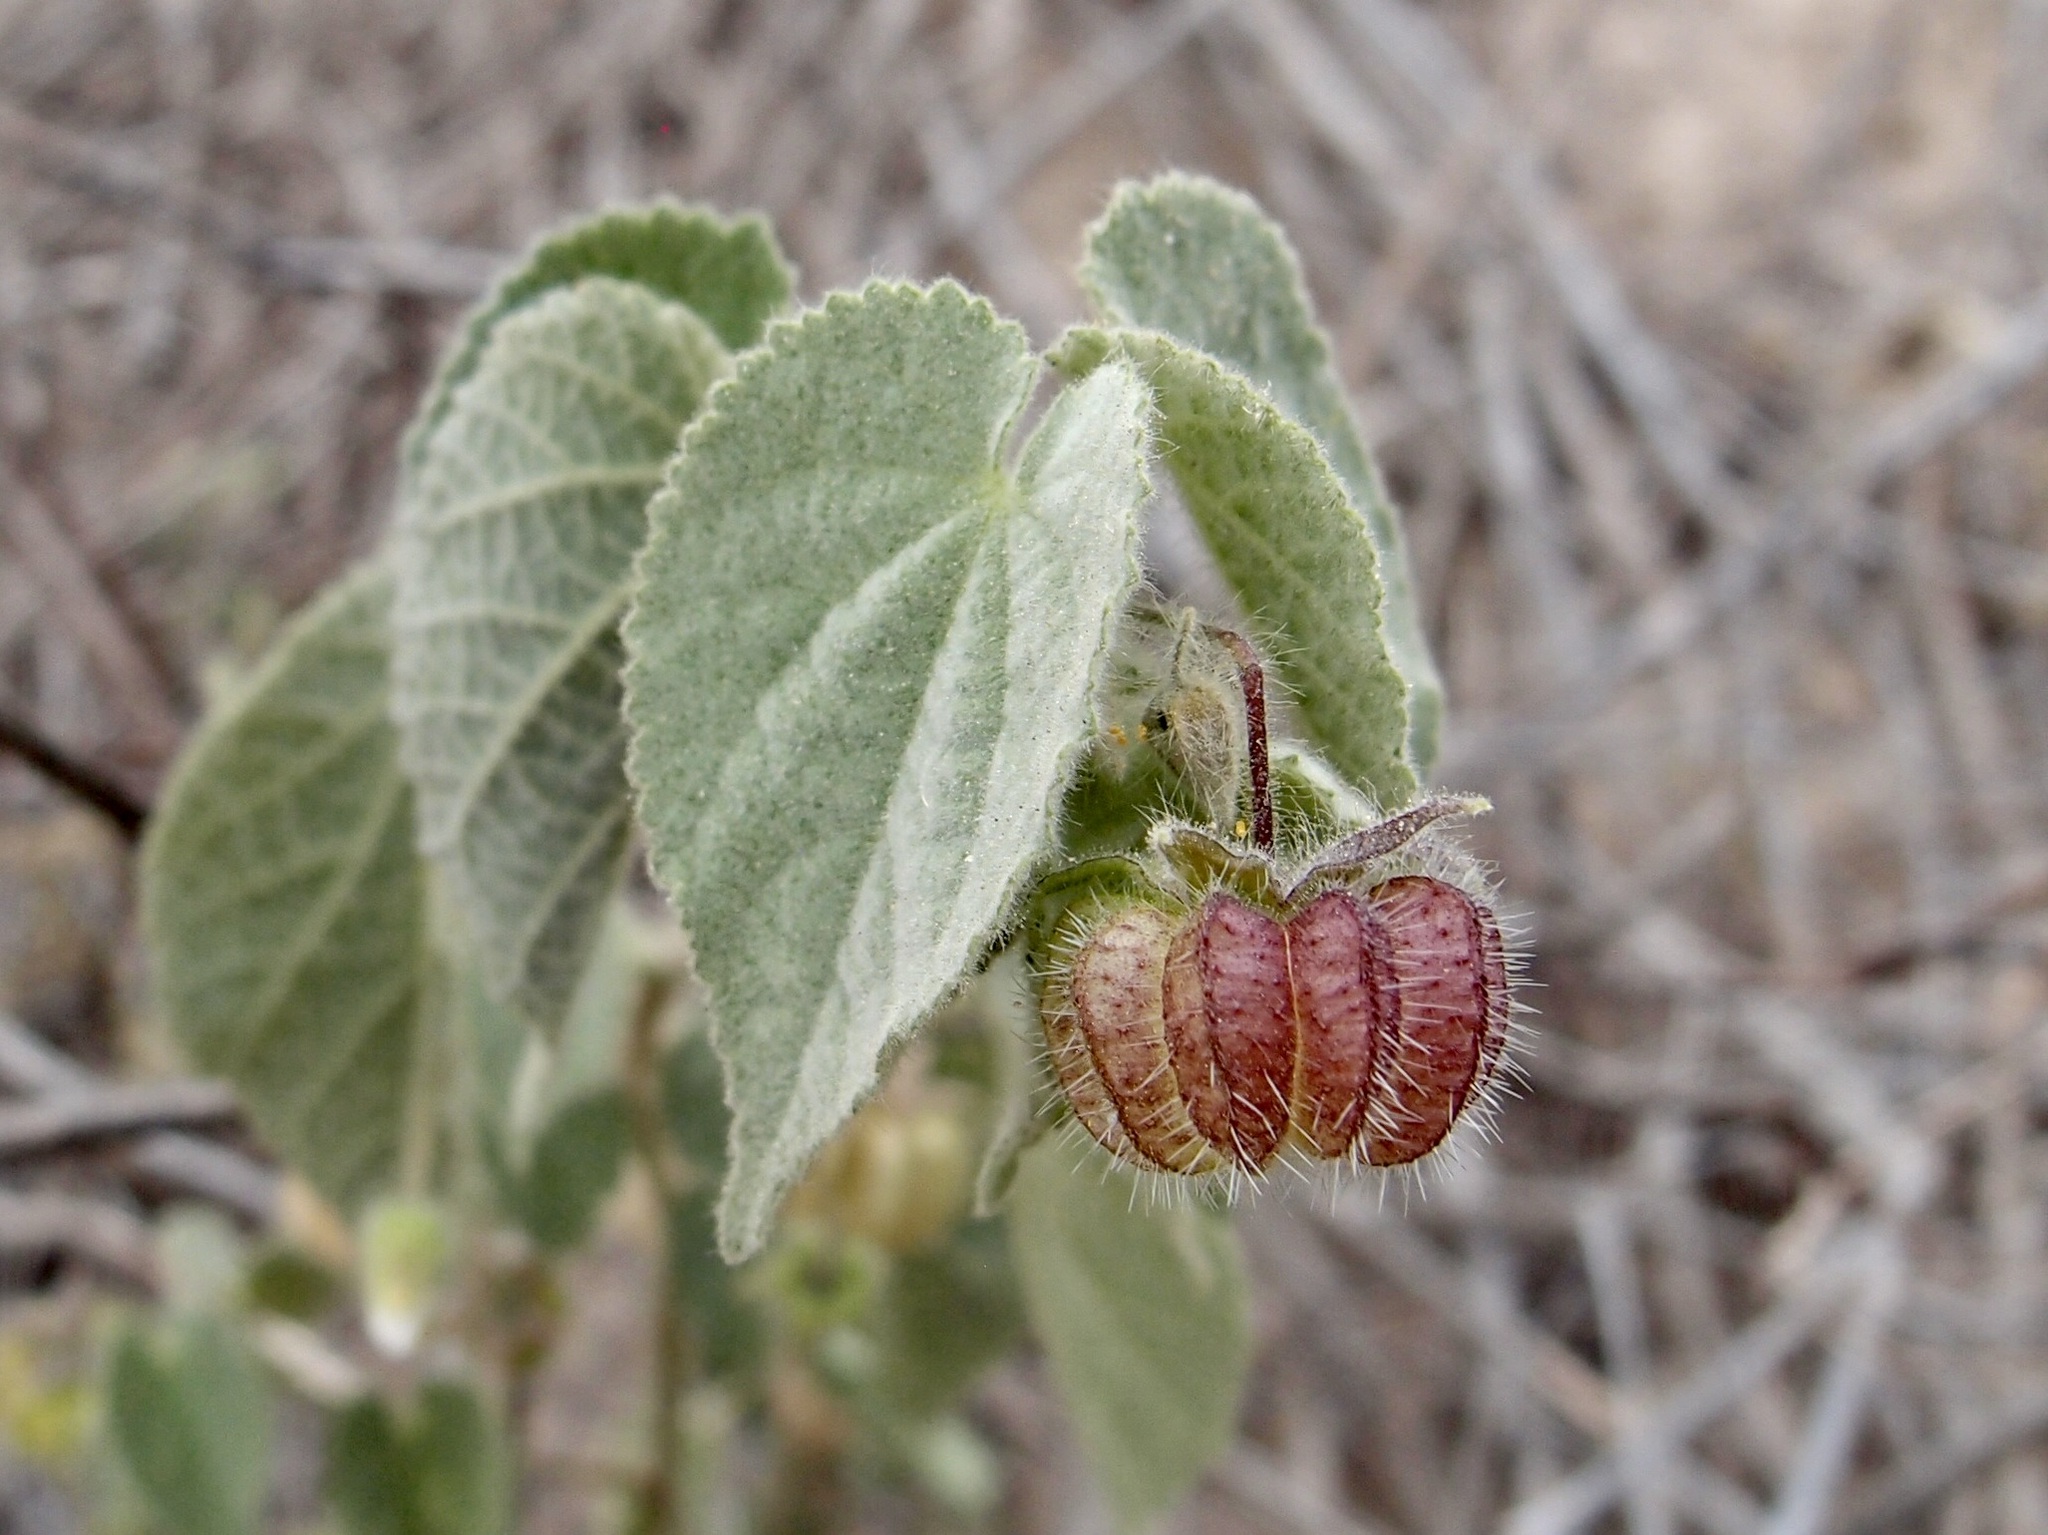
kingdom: Plantae
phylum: Tracheophyta
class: Magnoliopsida
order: Malvales
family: Malvaceae
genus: Herissantia
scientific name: Herissantia crispa
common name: Bladdermallow
